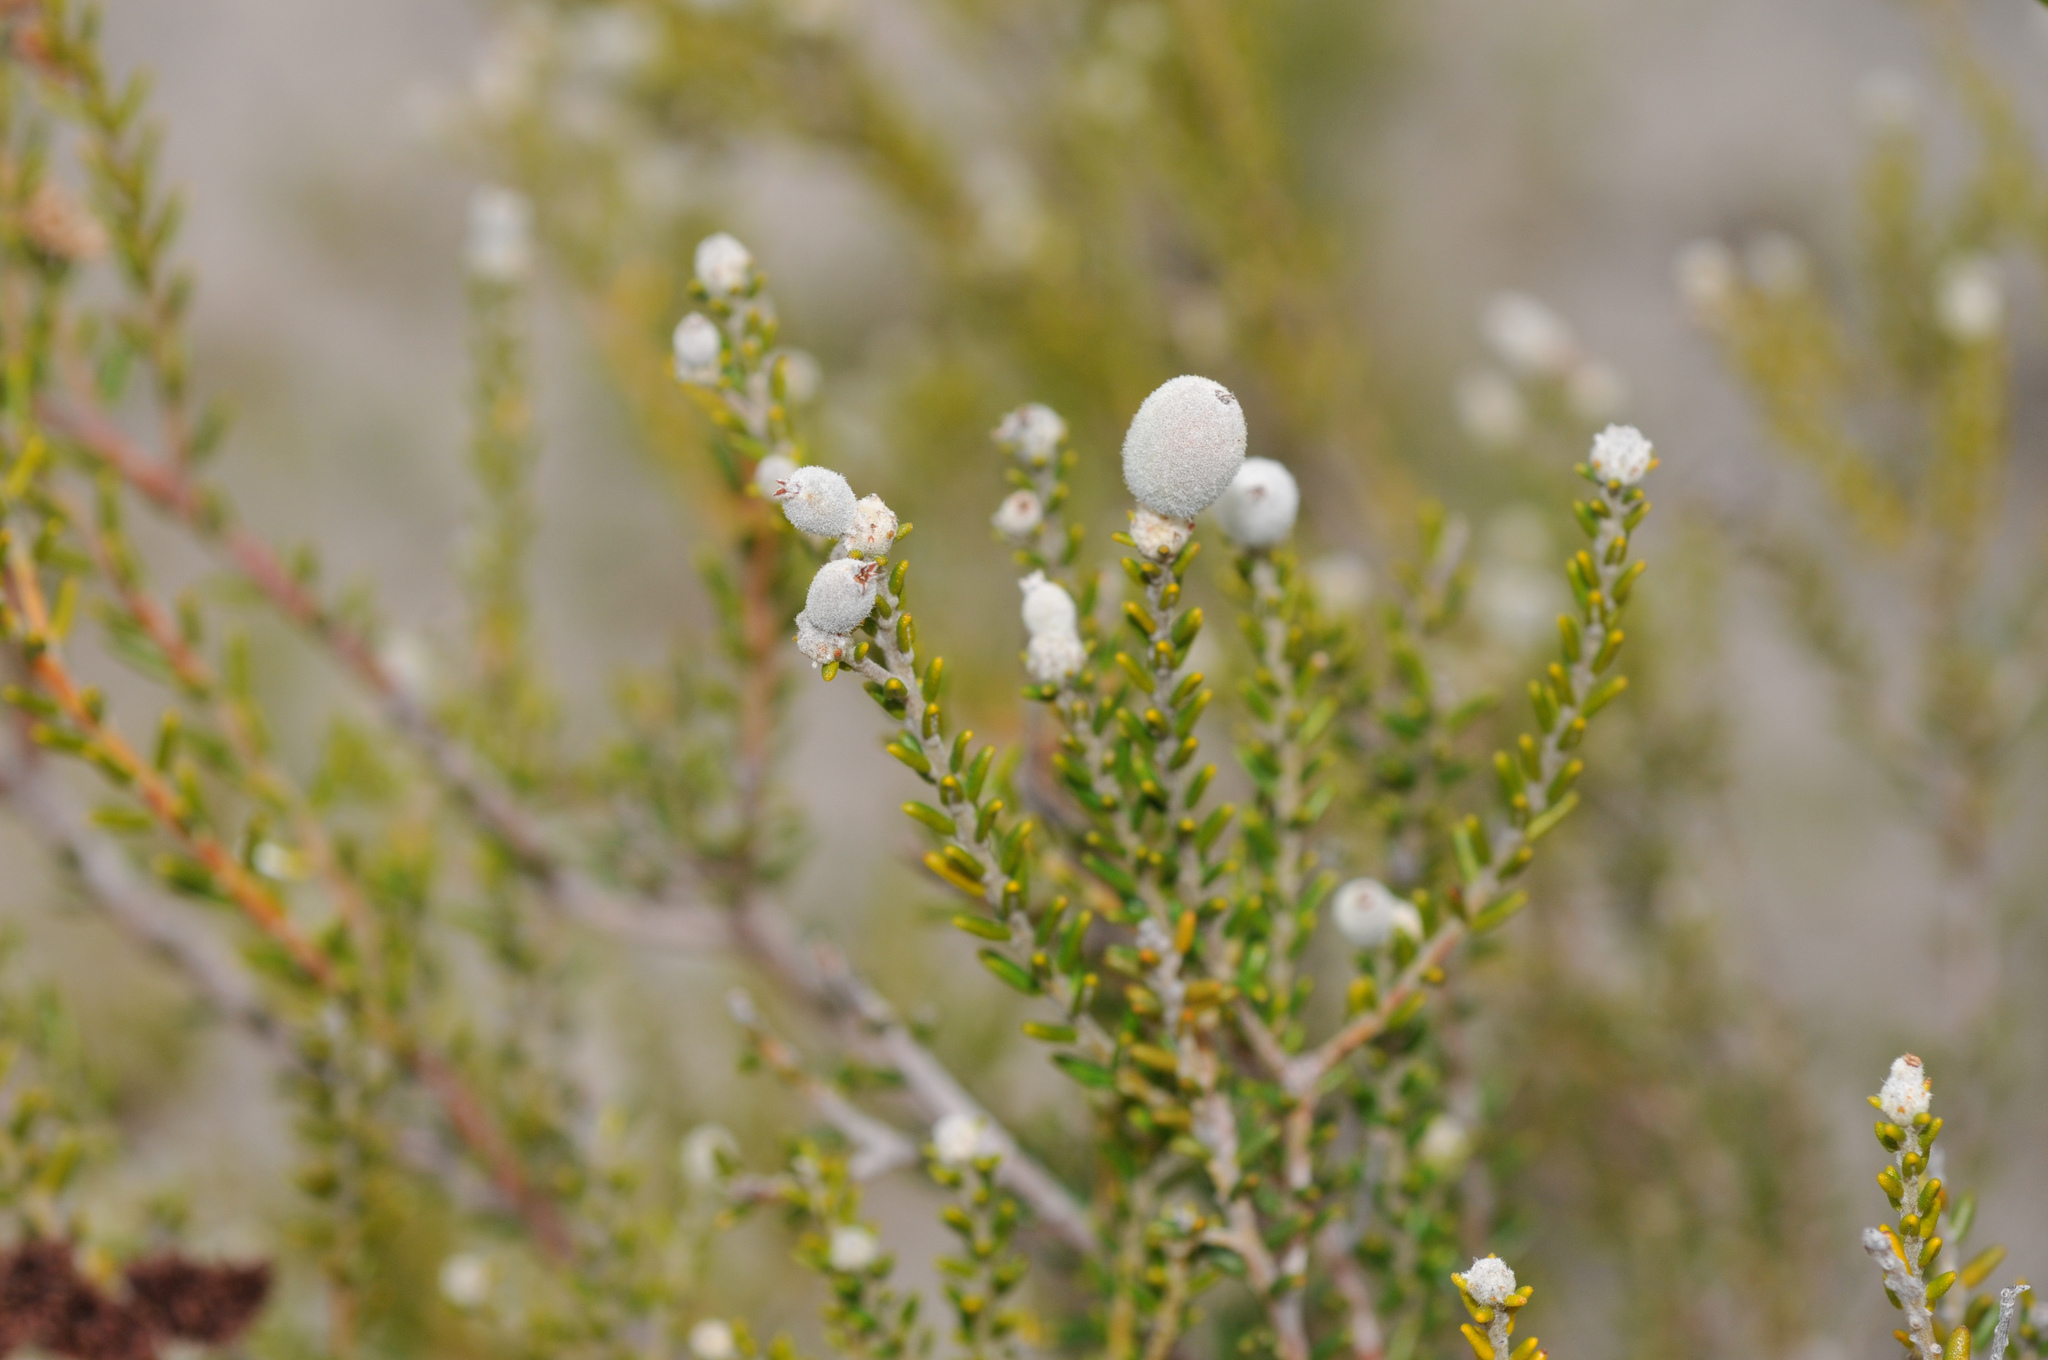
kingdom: Plantae
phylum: Tracheophyta
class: Magnoliopsida
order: Rosales
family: Rhamnaceae
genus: Phylica
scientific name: Phylica cephalantha
